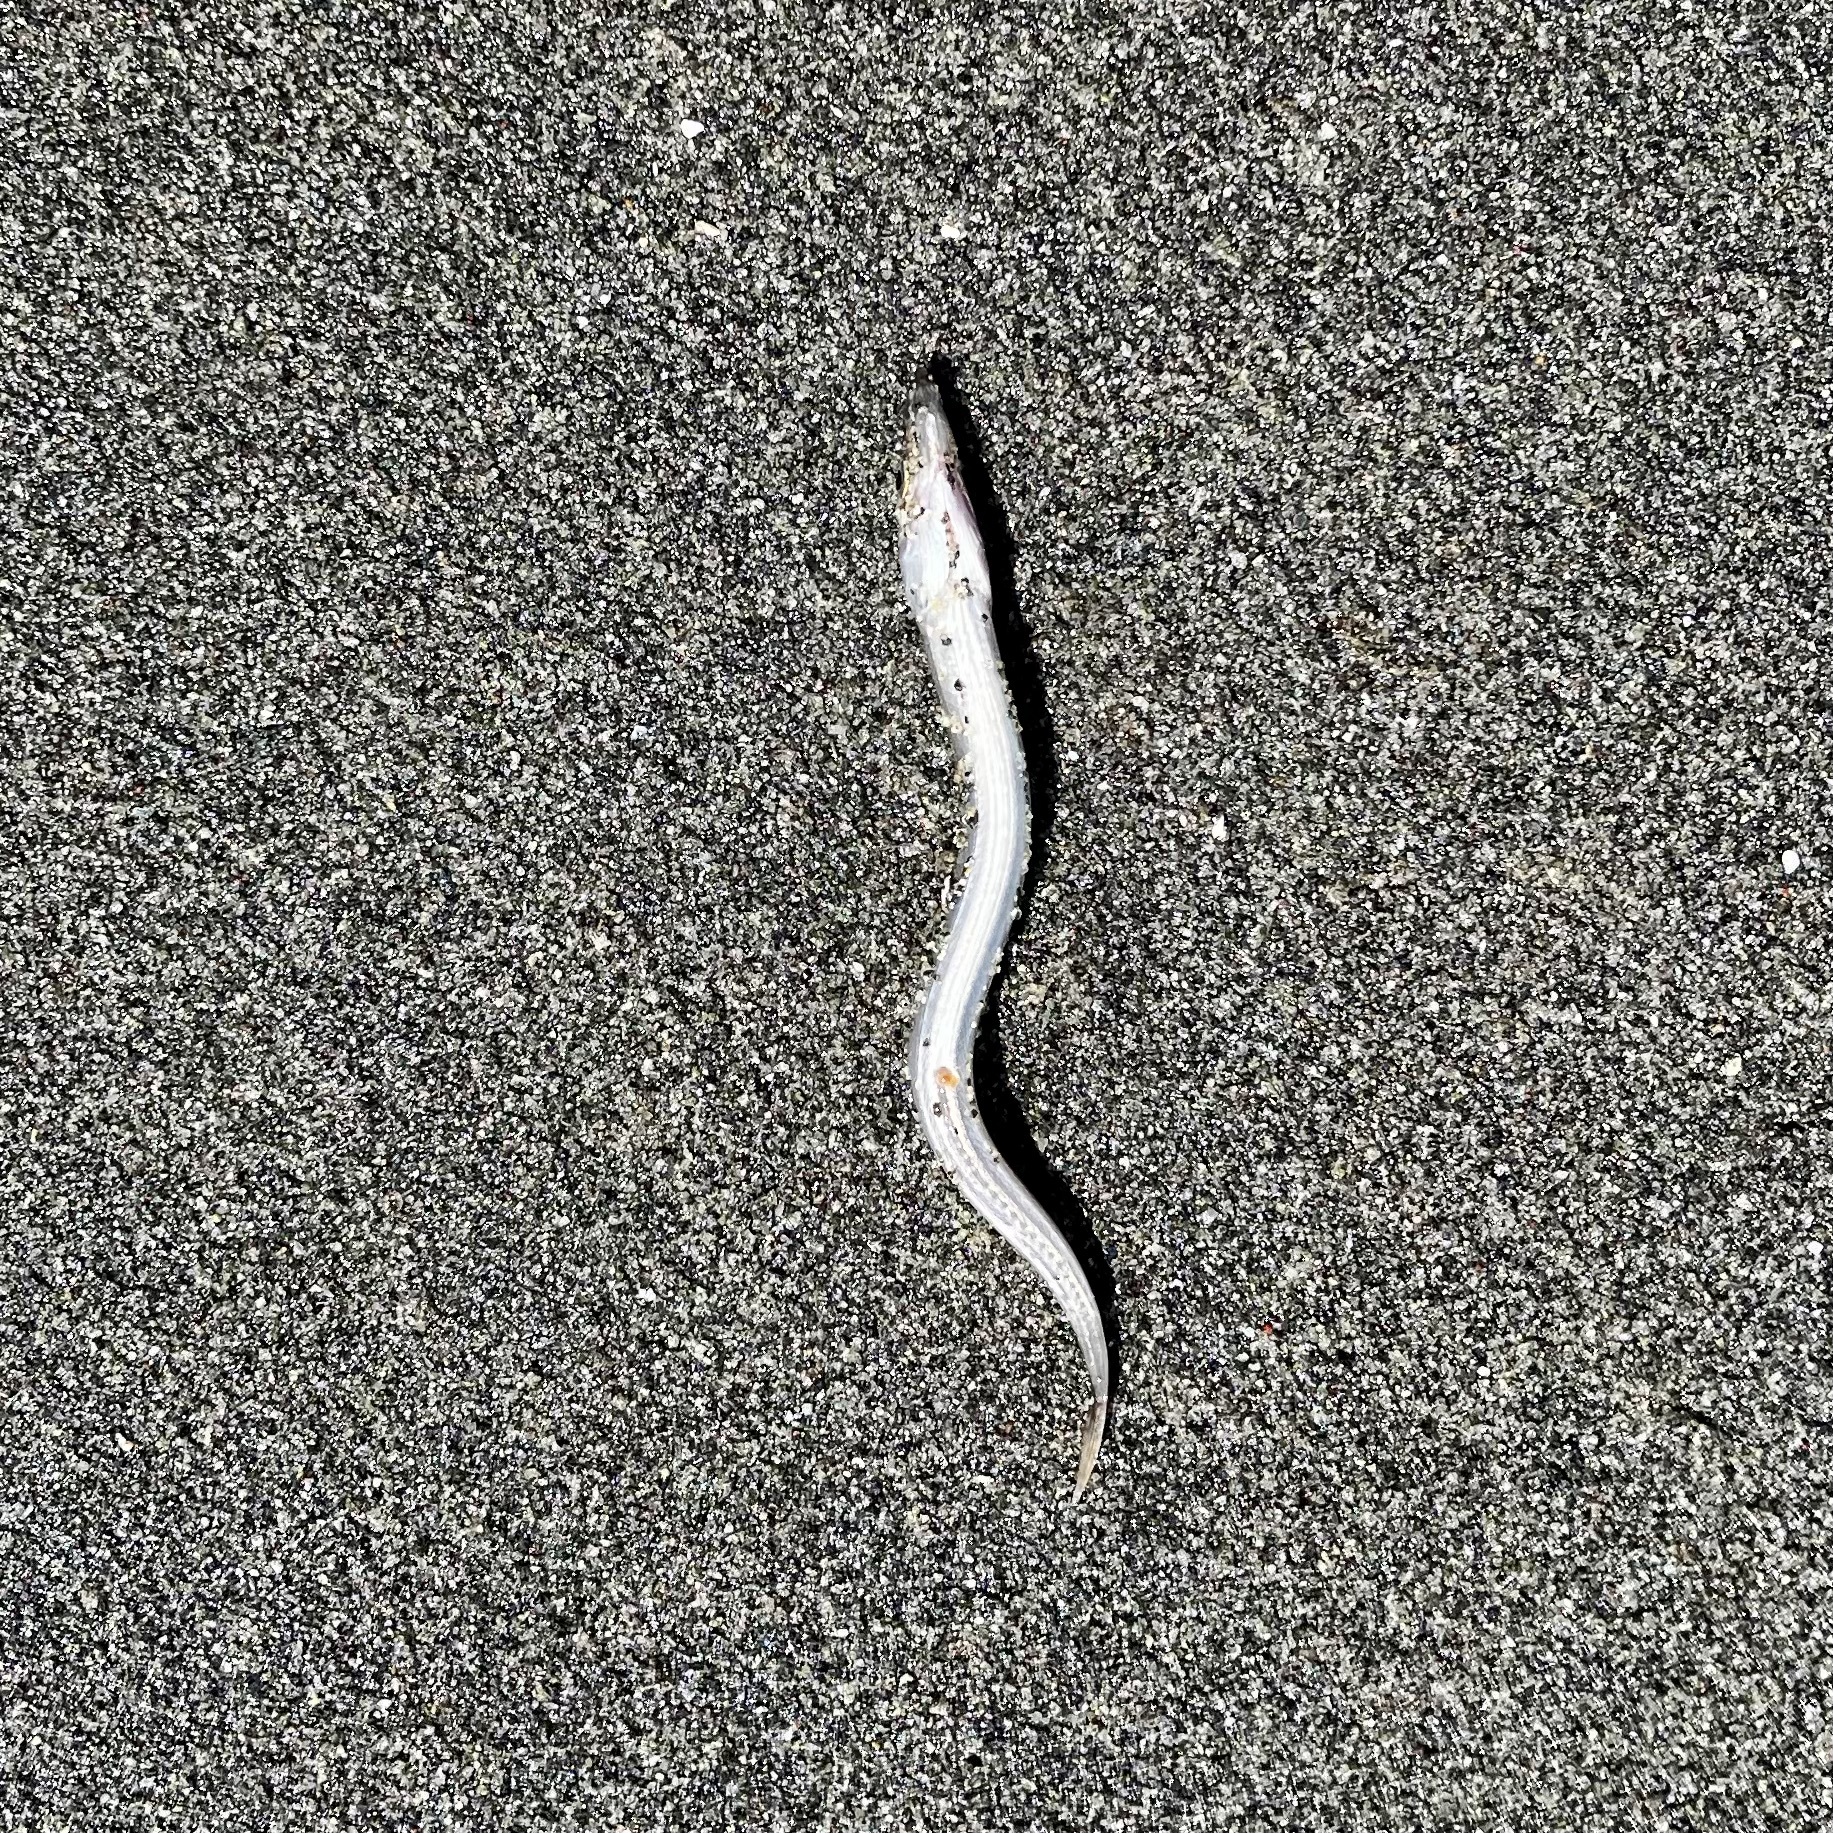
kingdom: Animalia
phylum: Chordata
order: Perciformes
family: Ammodytidae
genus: Ammodytes
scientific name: Ammodytes personatus
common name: Japanese sand lance
